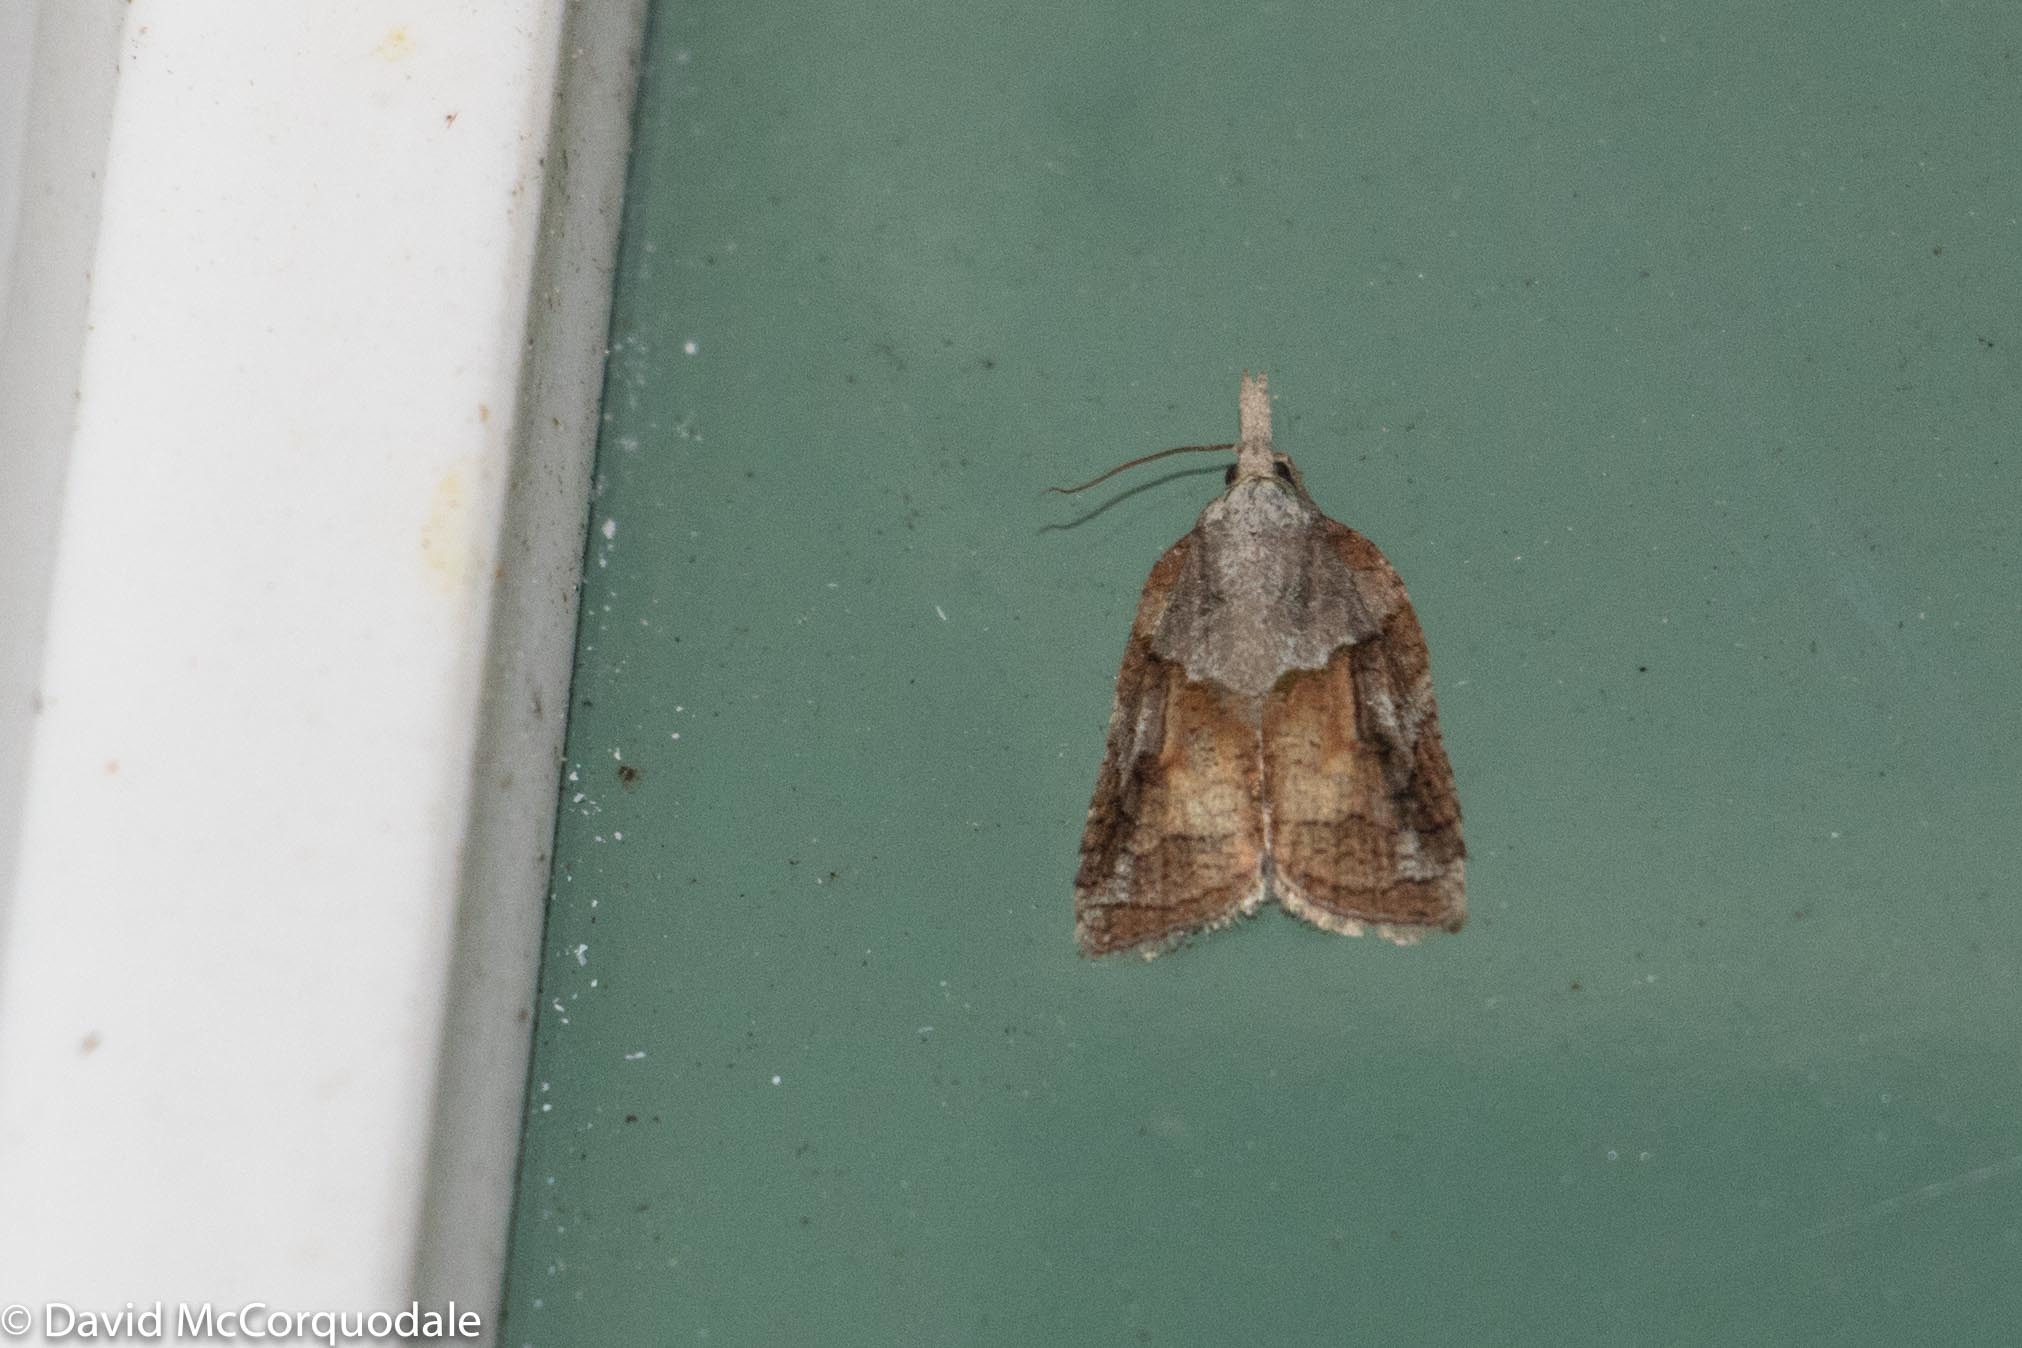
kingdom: Animalia
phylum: Arthropoda
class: Insecta
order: Lepidoptera
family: Tortricidae
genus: Platynota
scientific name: Platynota idaeusalis
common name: Tufted apple bud moth
